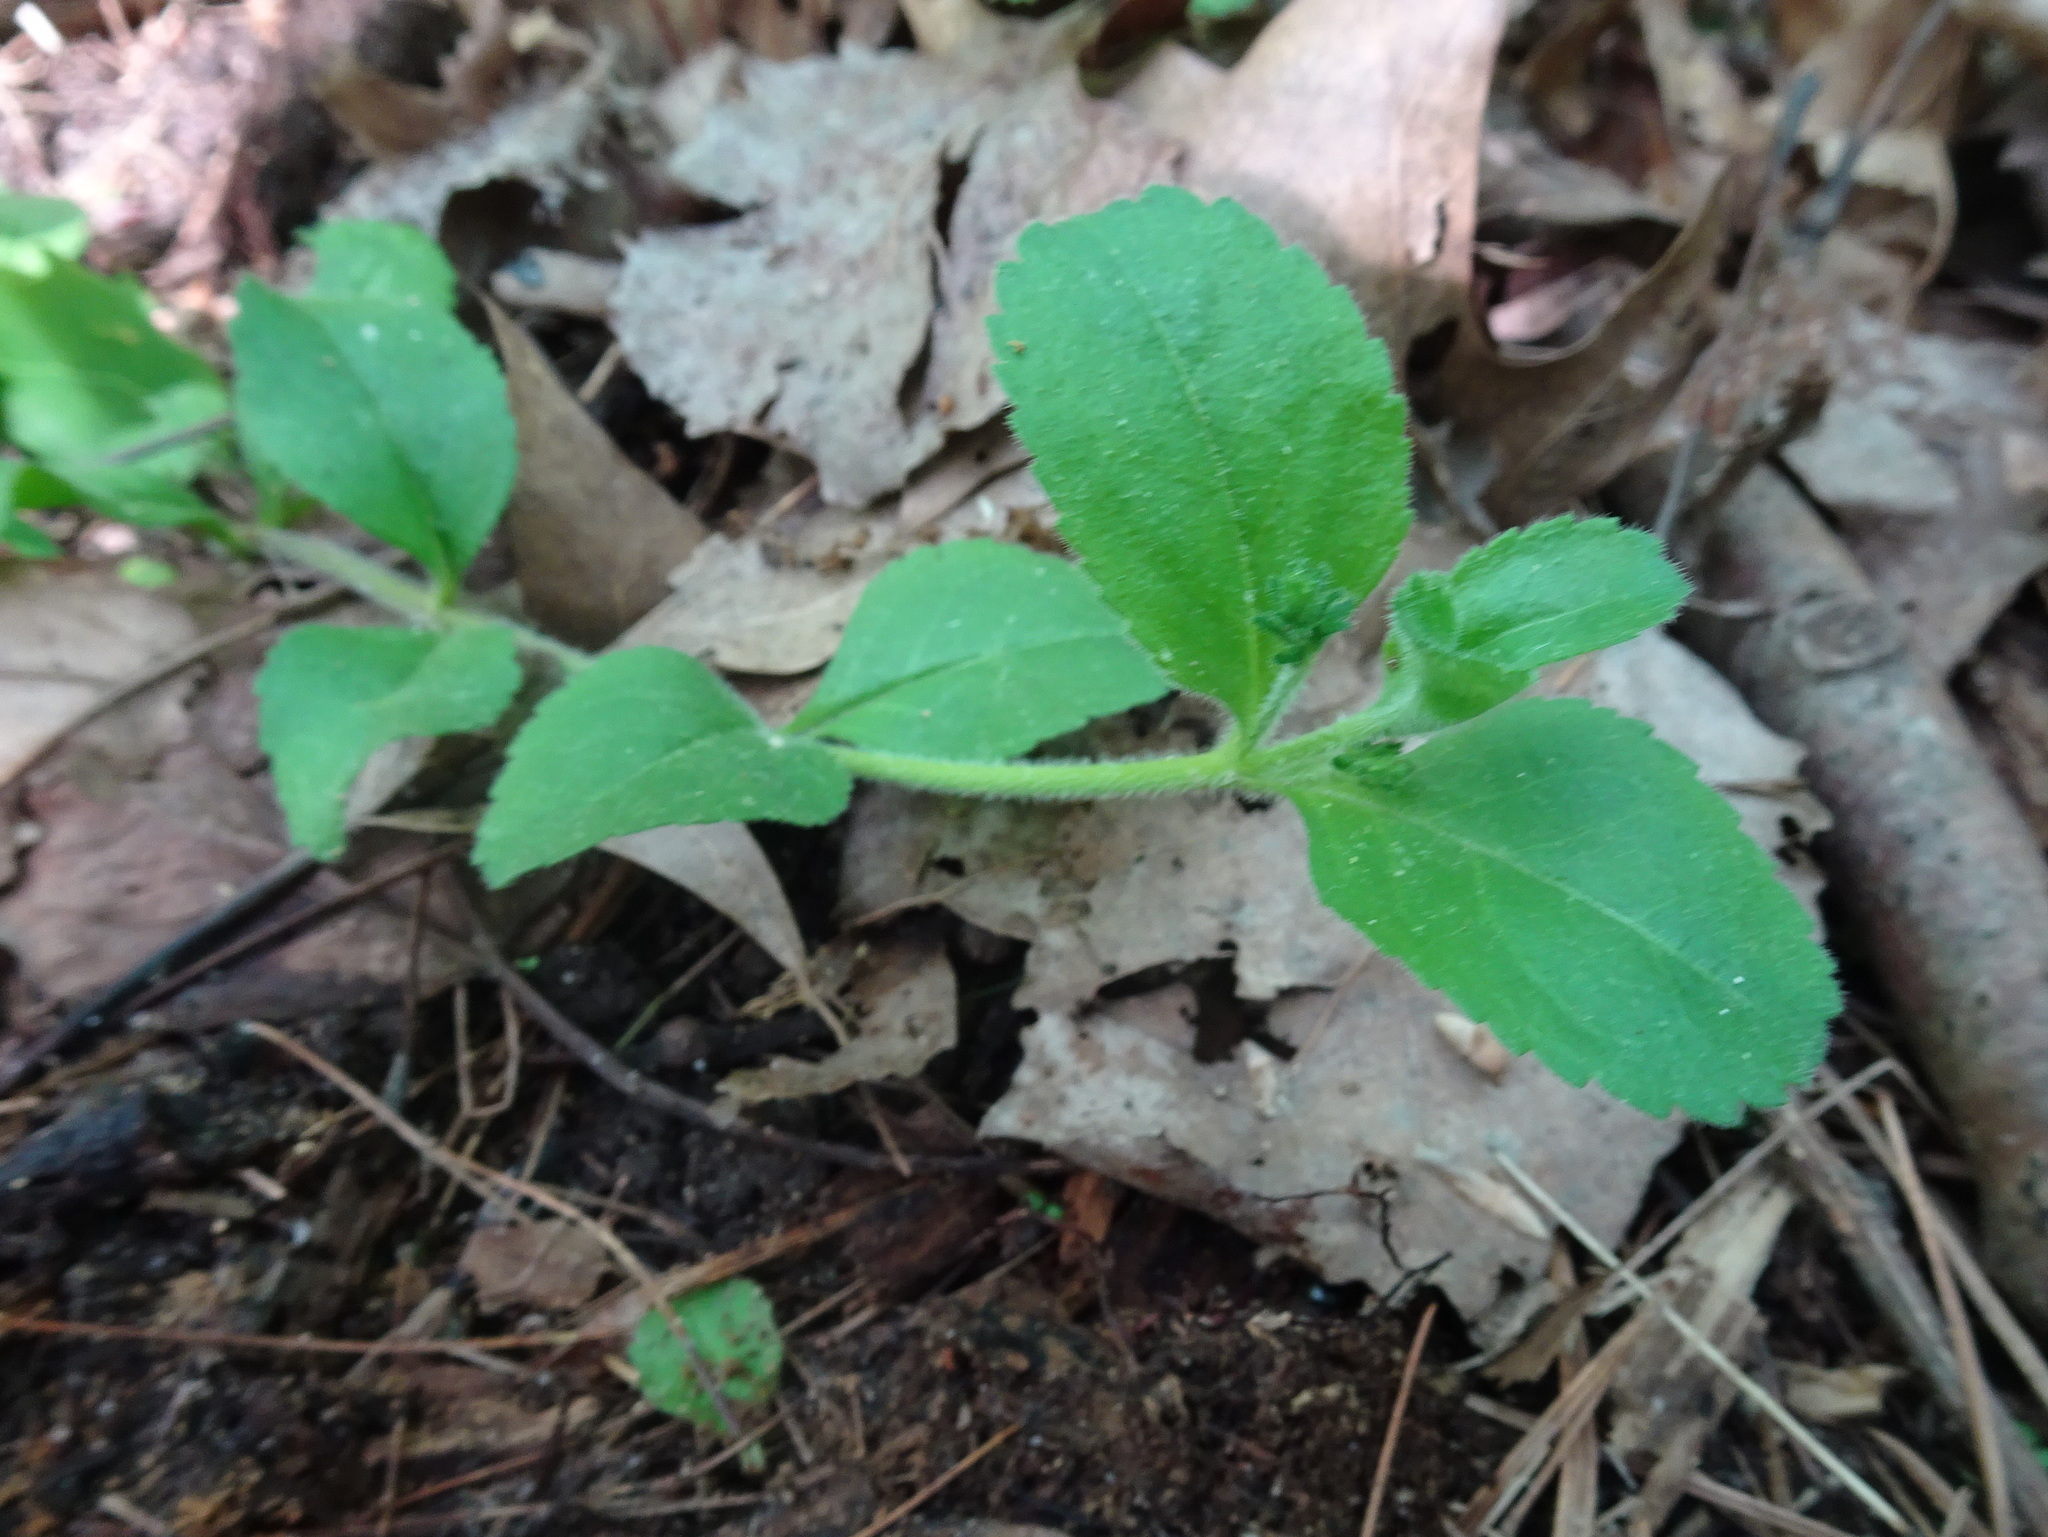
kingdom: Plantae
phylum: Tracheophyta
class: Magnoliopsida
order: Lamiales
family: Plantaginaceae
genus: Veronica
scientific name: Veronica officinalis
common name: Common speedwell
